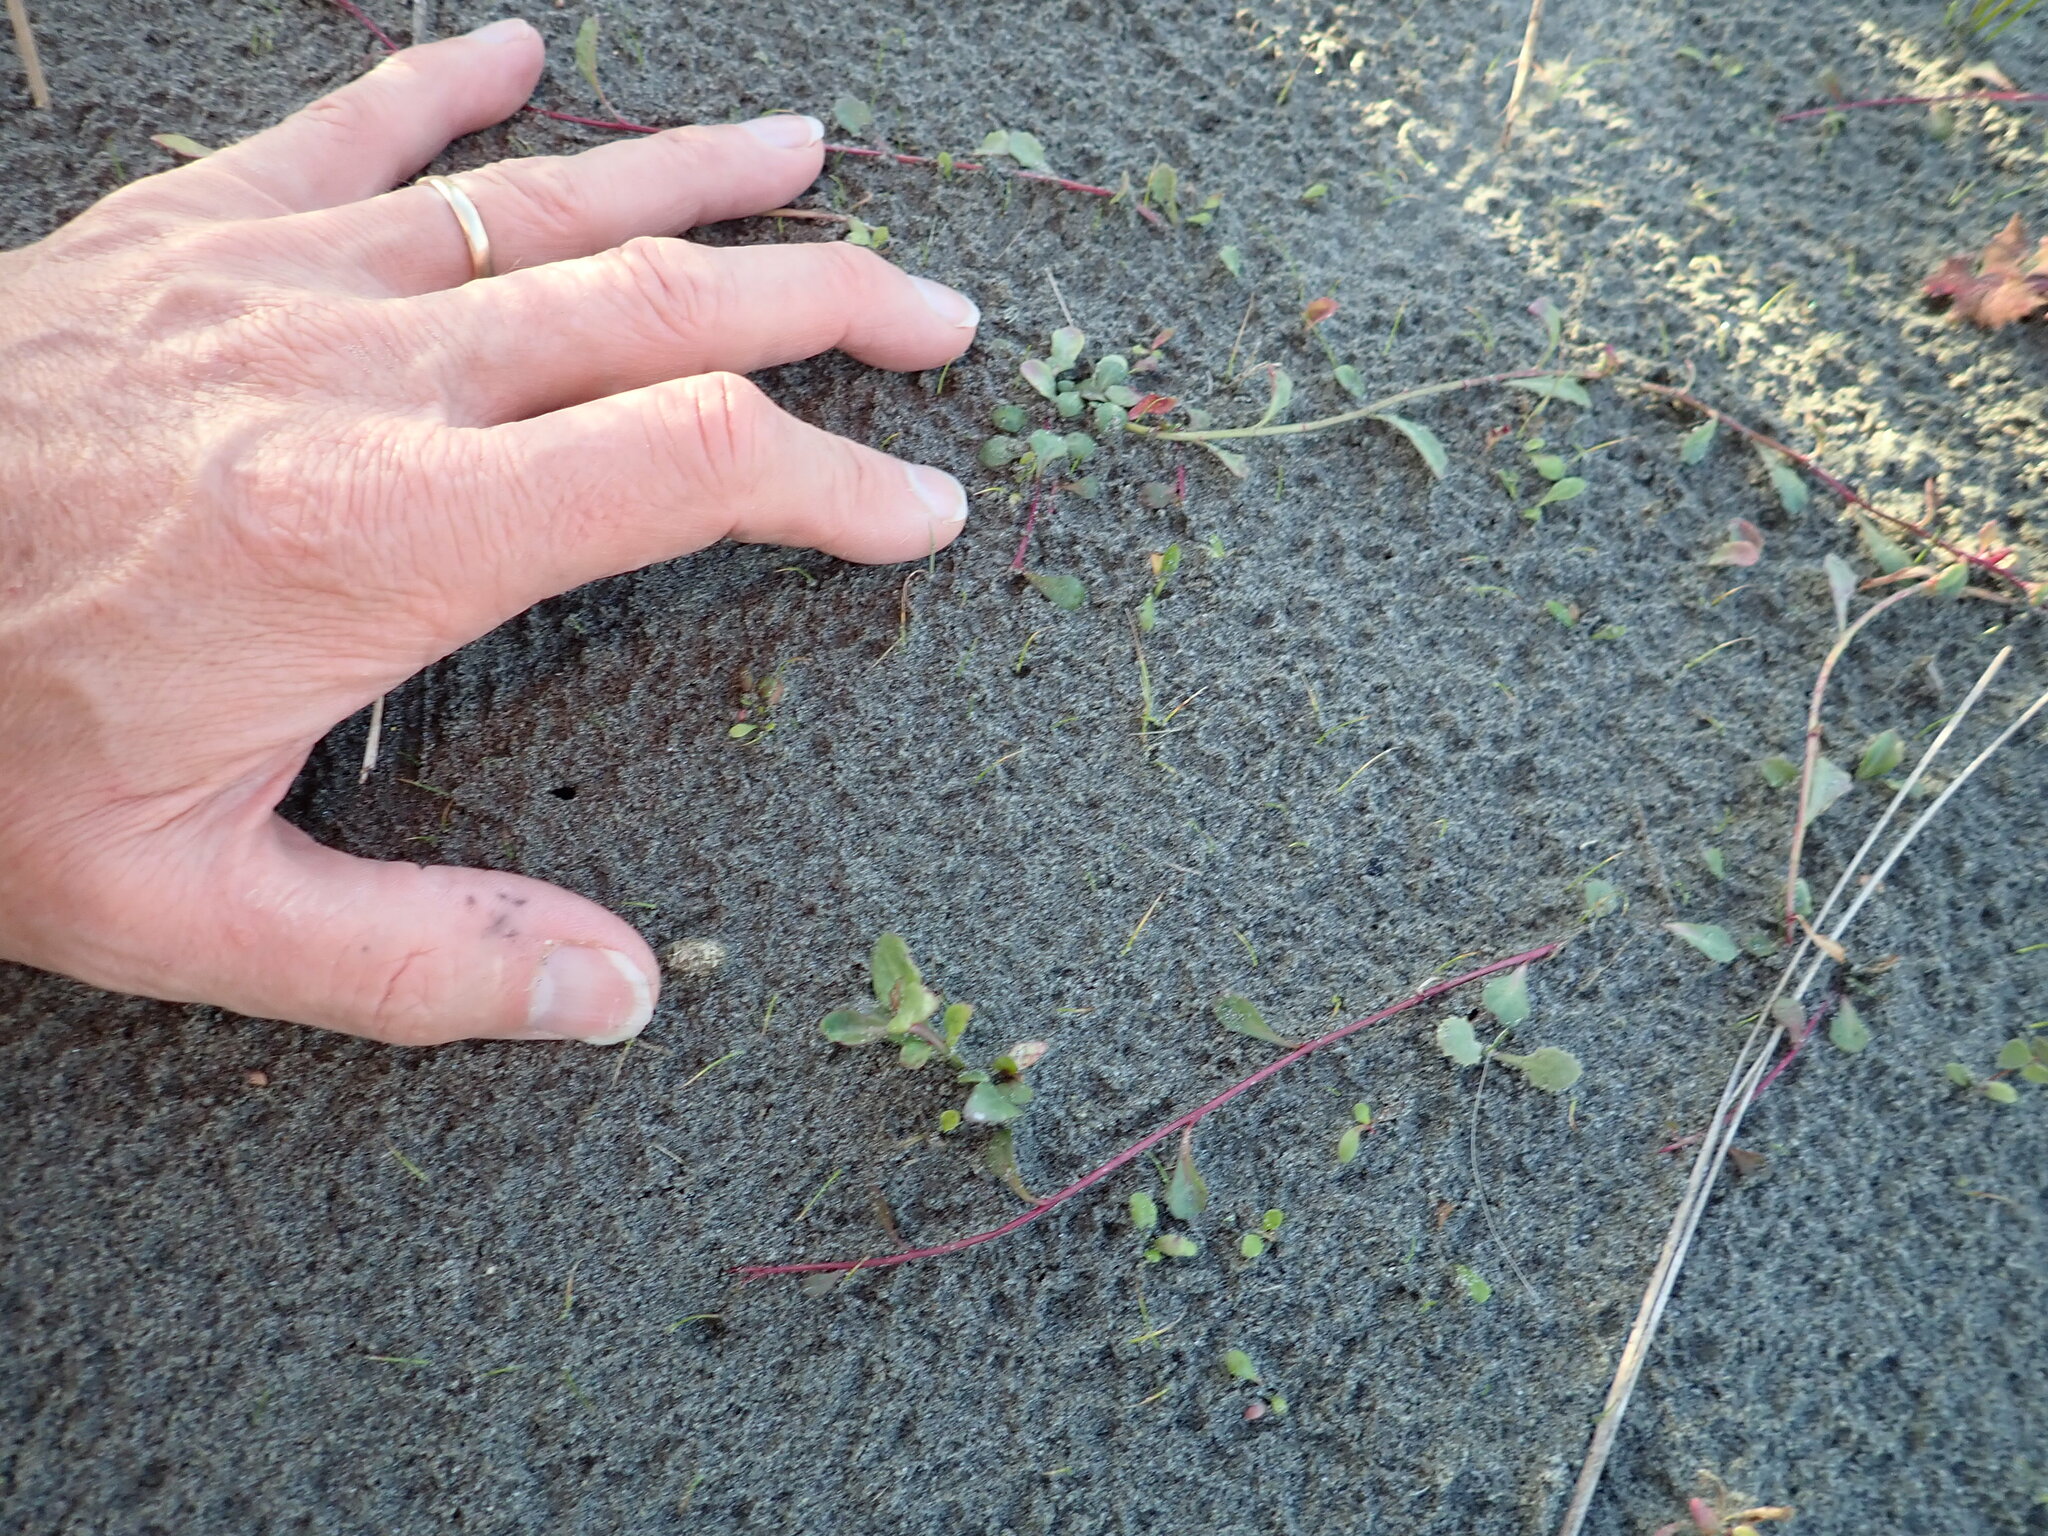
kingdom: Plantae
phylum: Tracheophyta
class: Magnoliopsida
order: Asterales
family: Campanulaceae
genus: Lobelia
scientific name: Lobelia anceps
